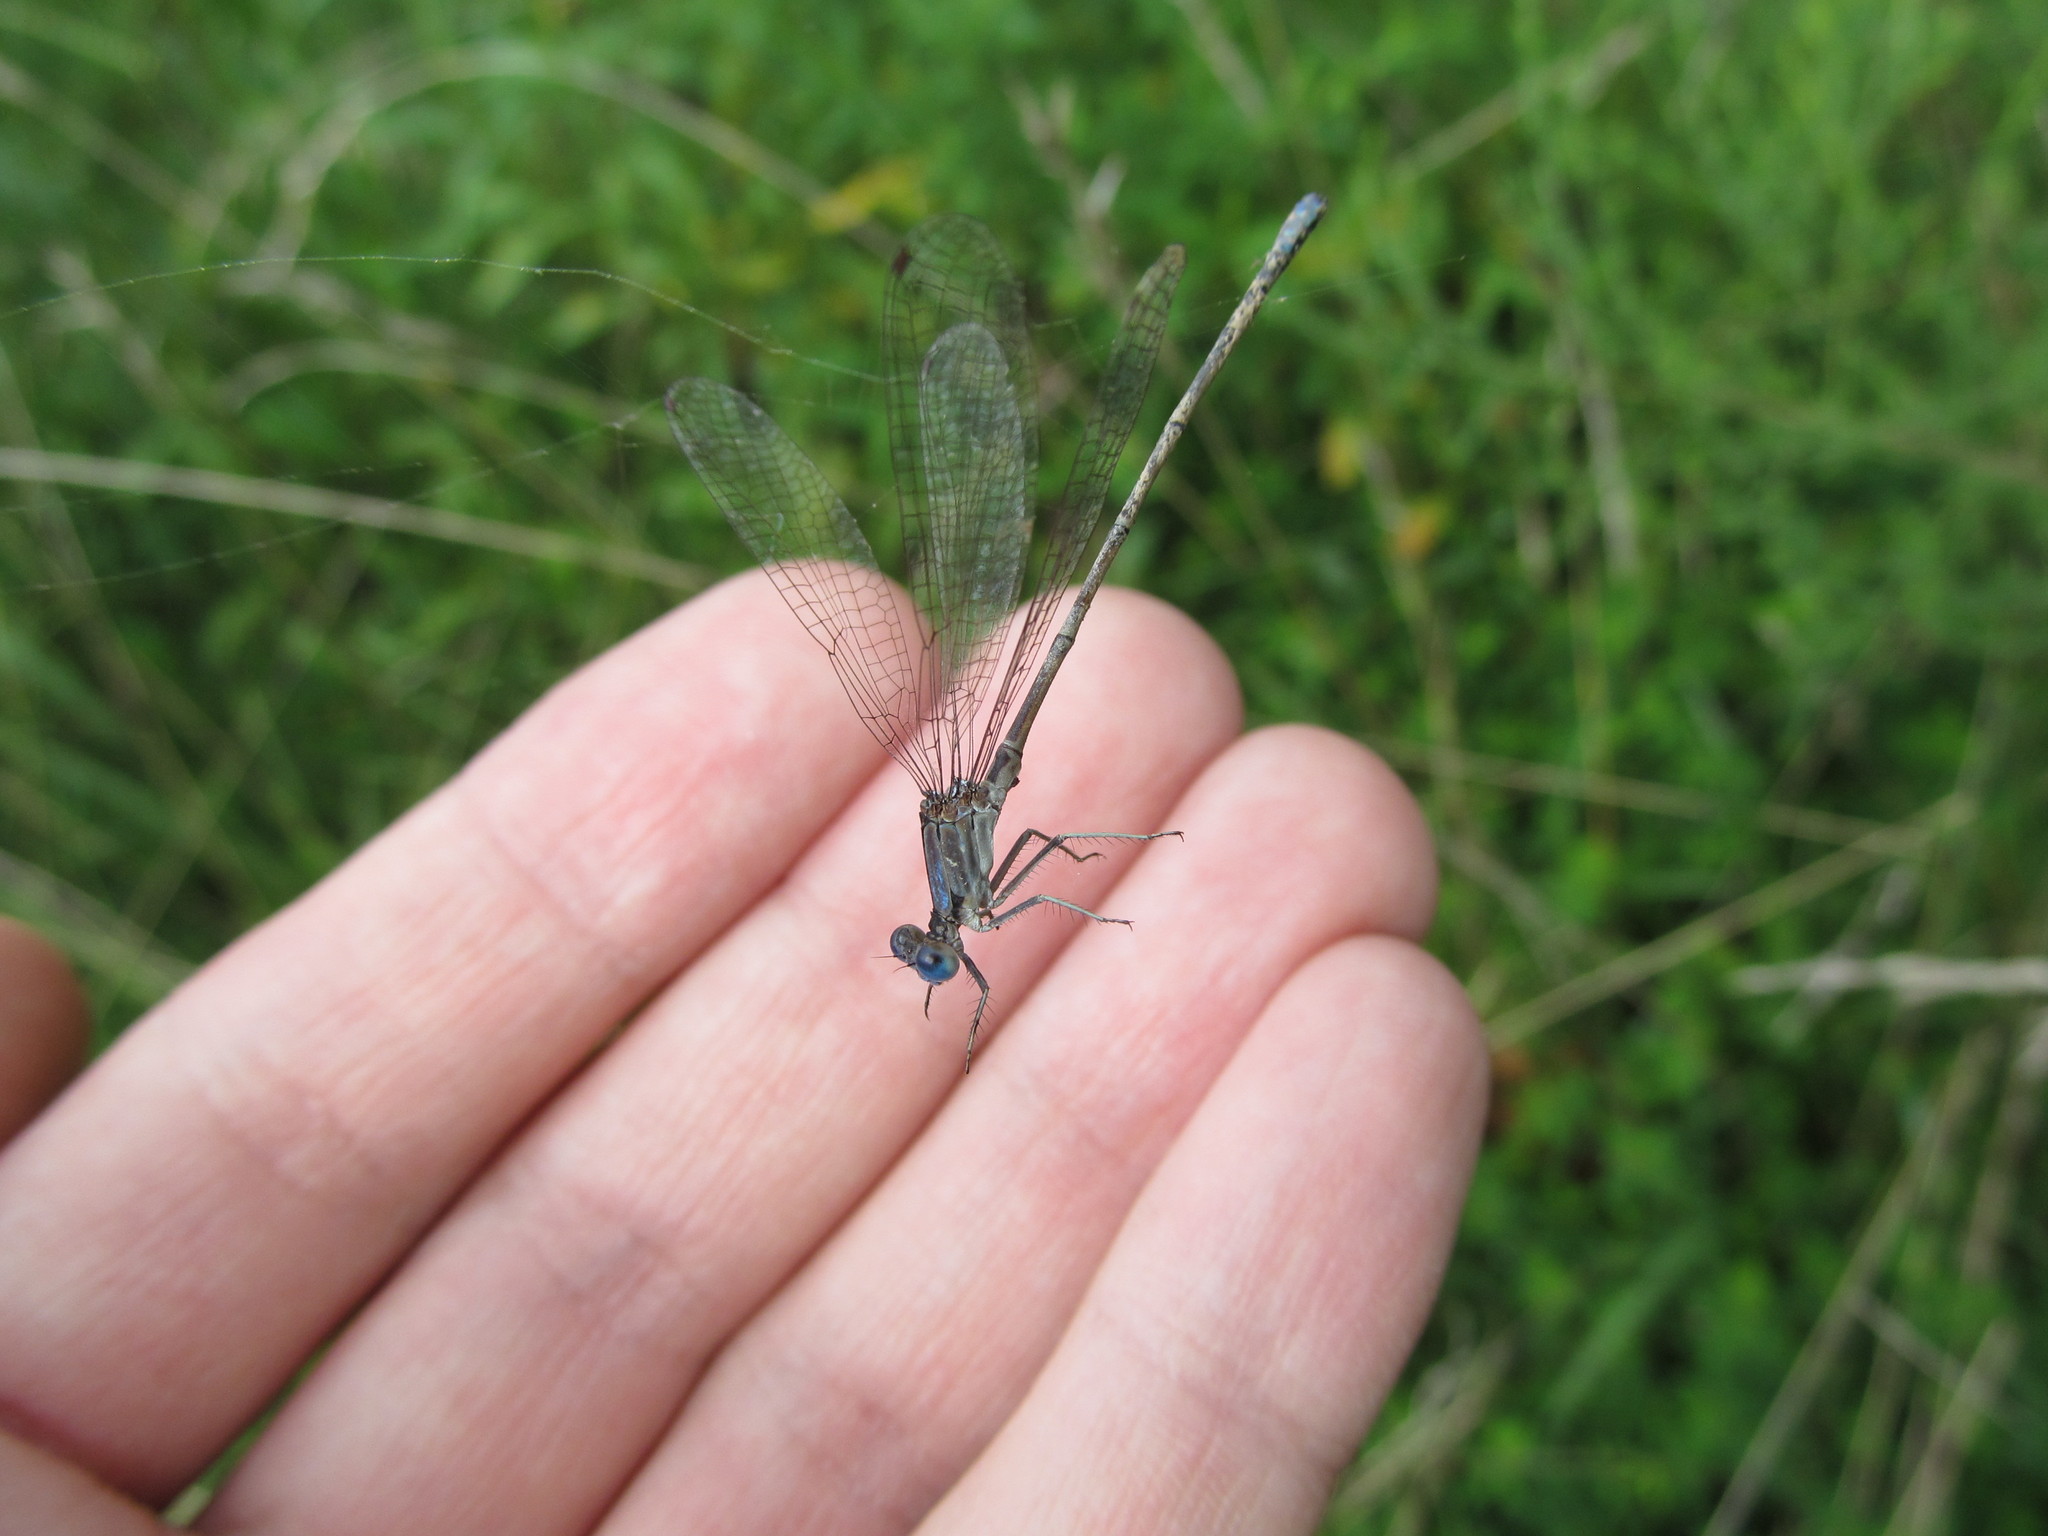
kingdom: Animalia
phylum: Arthropoda
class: Insecta
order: Odonata
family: Coenagrionidae
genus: Argia
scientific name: Argia apicalis
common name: Blue-fronted dancer
